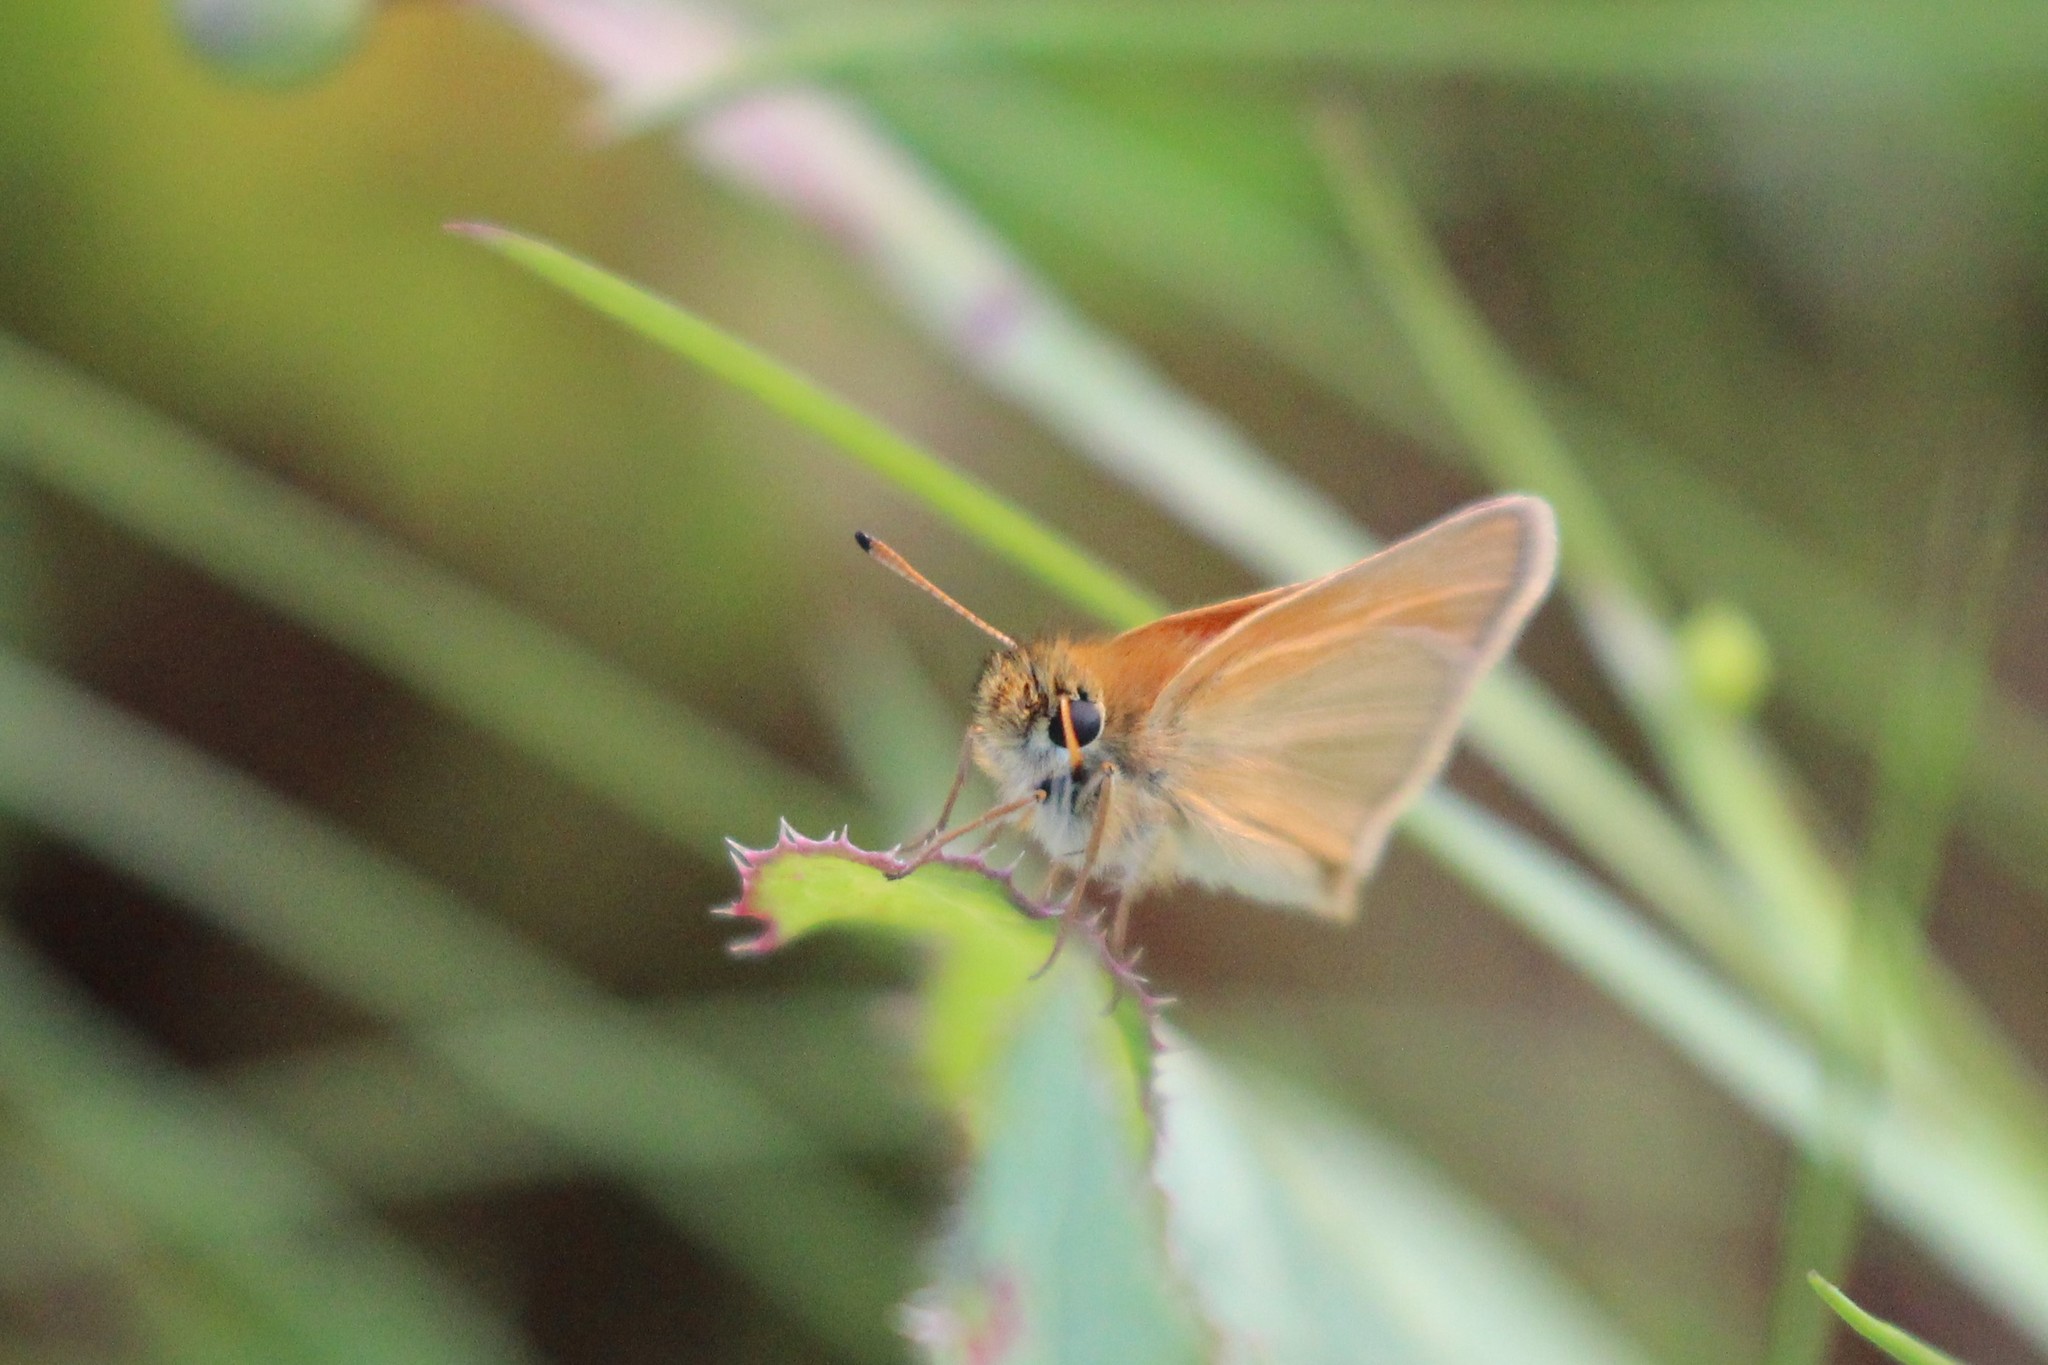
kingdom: Animalia
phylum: Arthropoda
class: Insecta
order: Lepidoptera
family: Hesperiidae
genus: Thymelicus
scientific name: Thymelicus lineola
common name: Essex skipper
